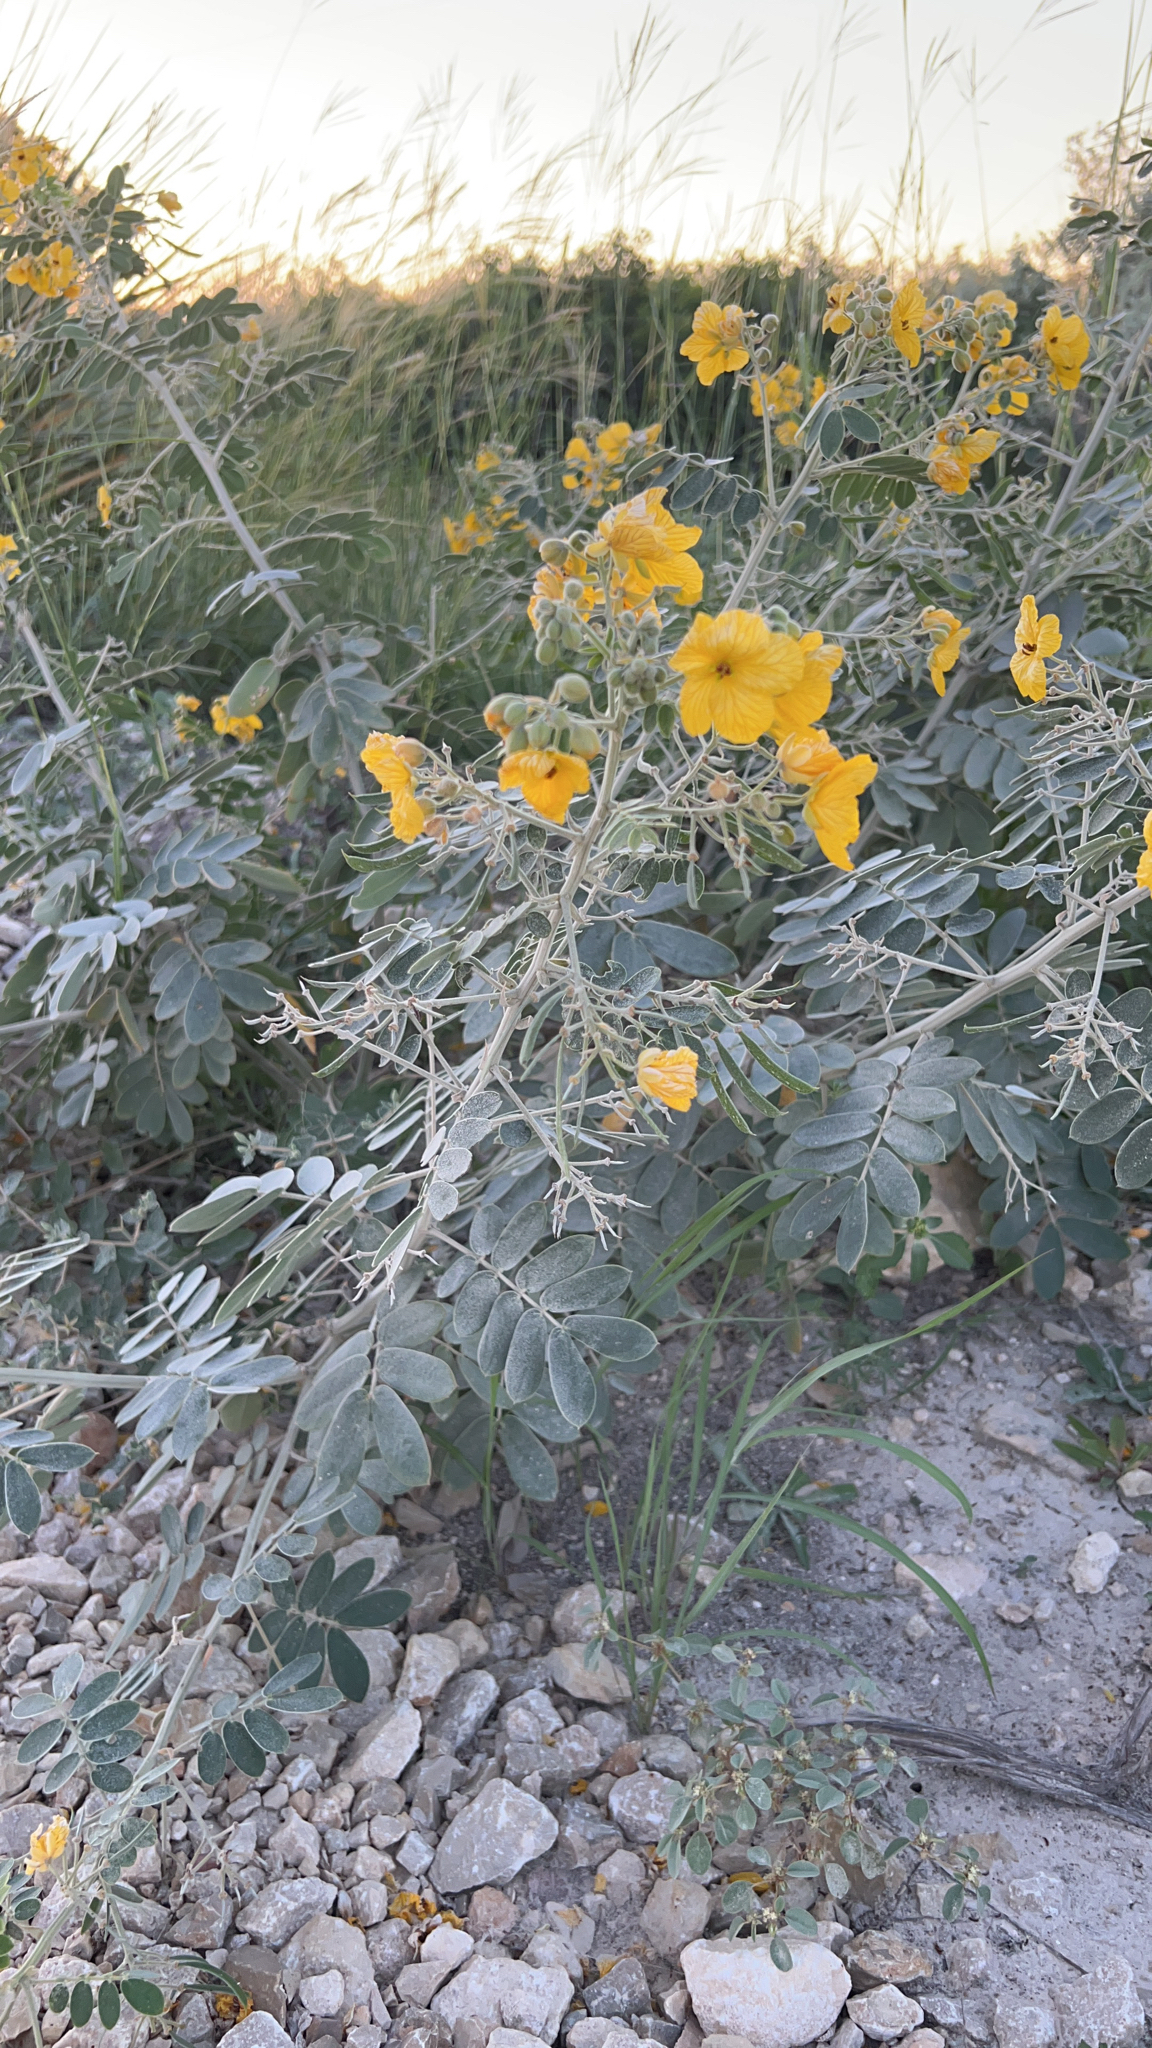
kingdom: Plantae
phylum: Tracheophyta
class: Magnoliopsida
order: Fabales
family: Fabaceae
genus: Senna
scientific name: Senna lindheimeriana
